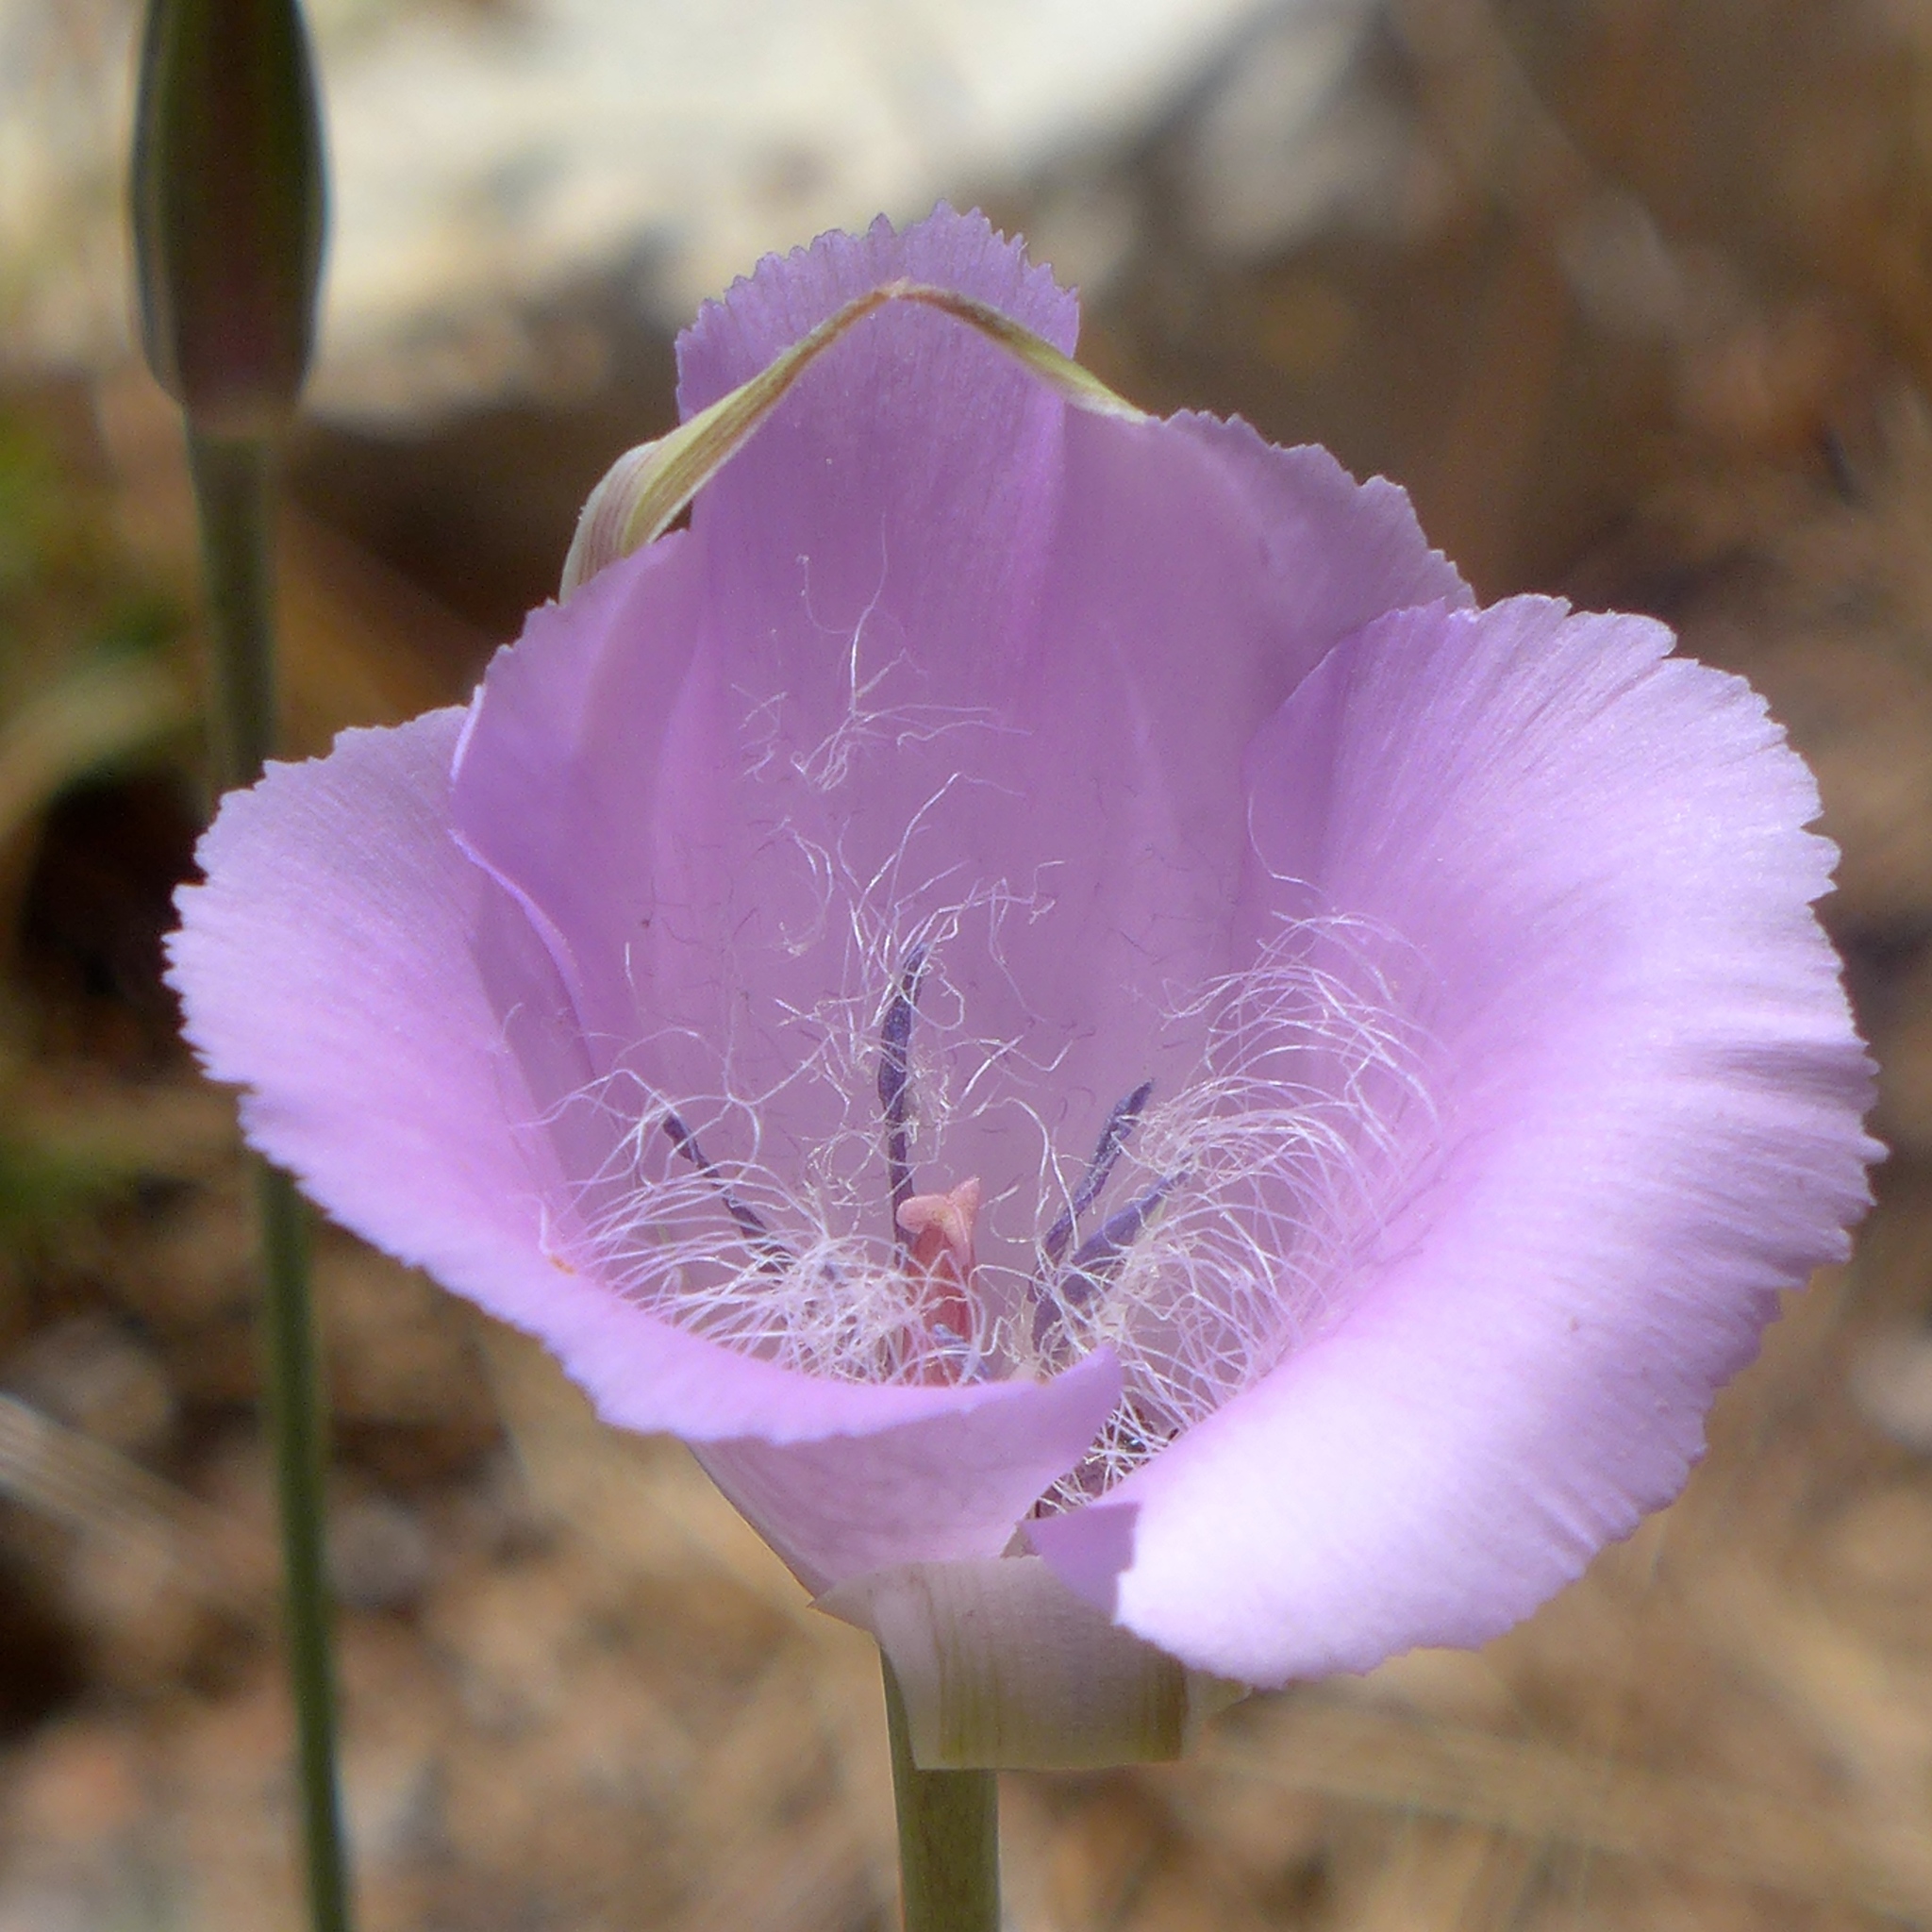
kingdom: Plantae
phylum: Tracheophyta
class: Liliopsida
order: Liliales
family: Liliaceae
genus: Calochortus
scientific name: Calochortus splendens
